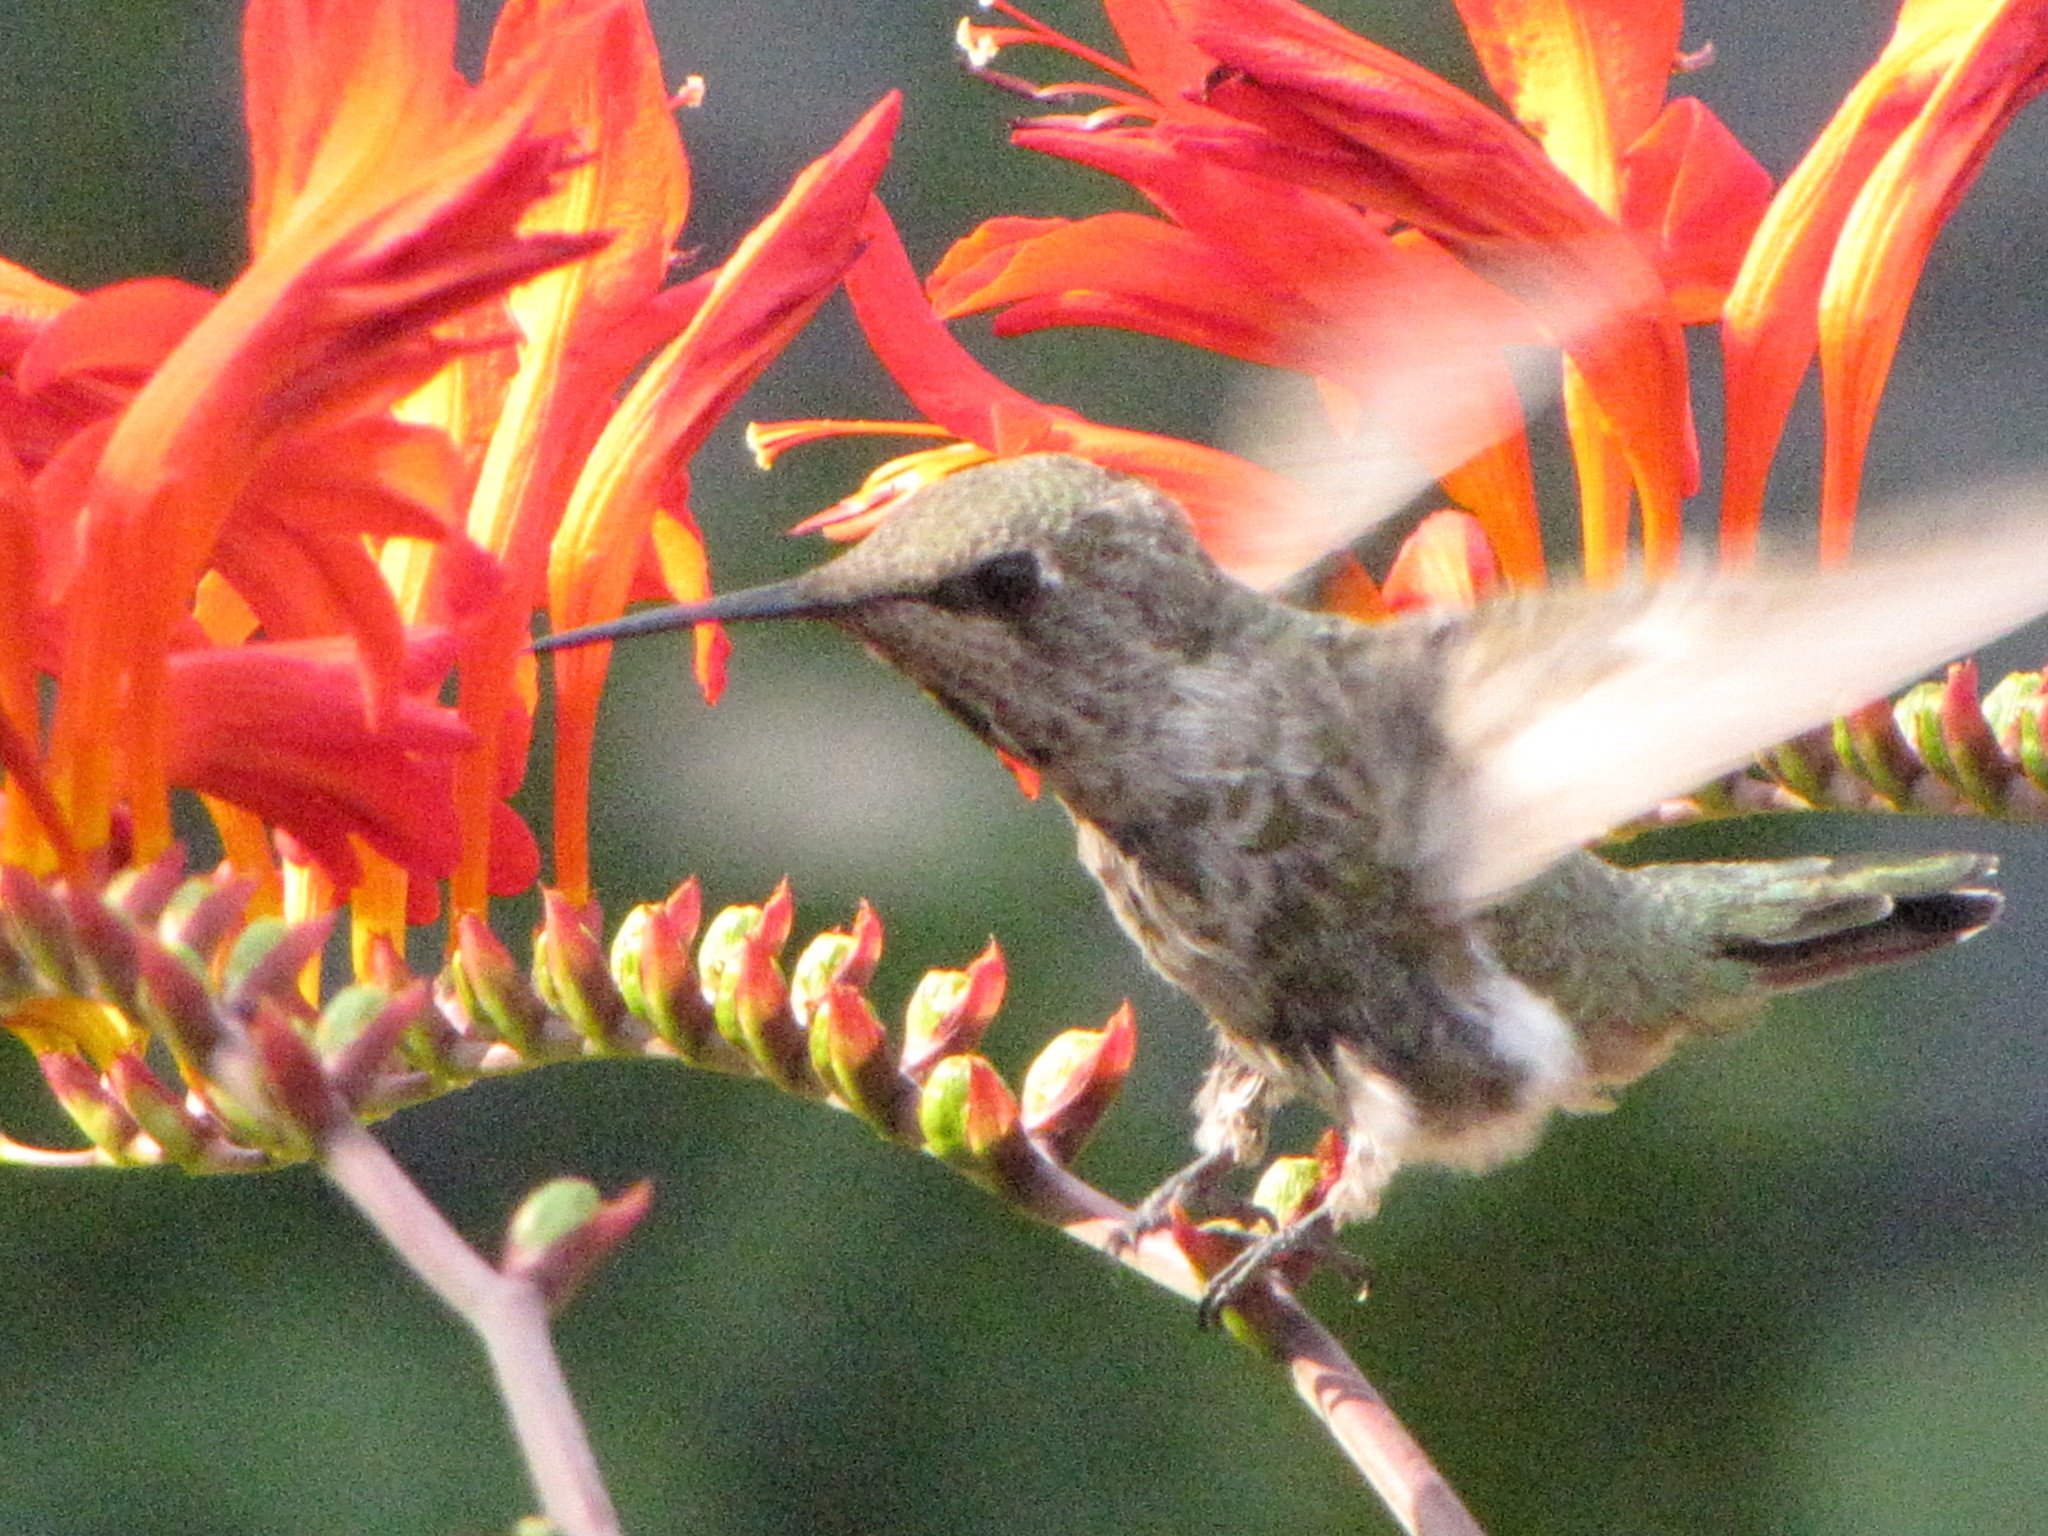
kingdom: Animalia
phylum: Chordata
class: Aves
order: Apodiformes
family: Trochilidae
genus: Calypte
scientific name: Calypte anna
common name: Anna's hummingbird
